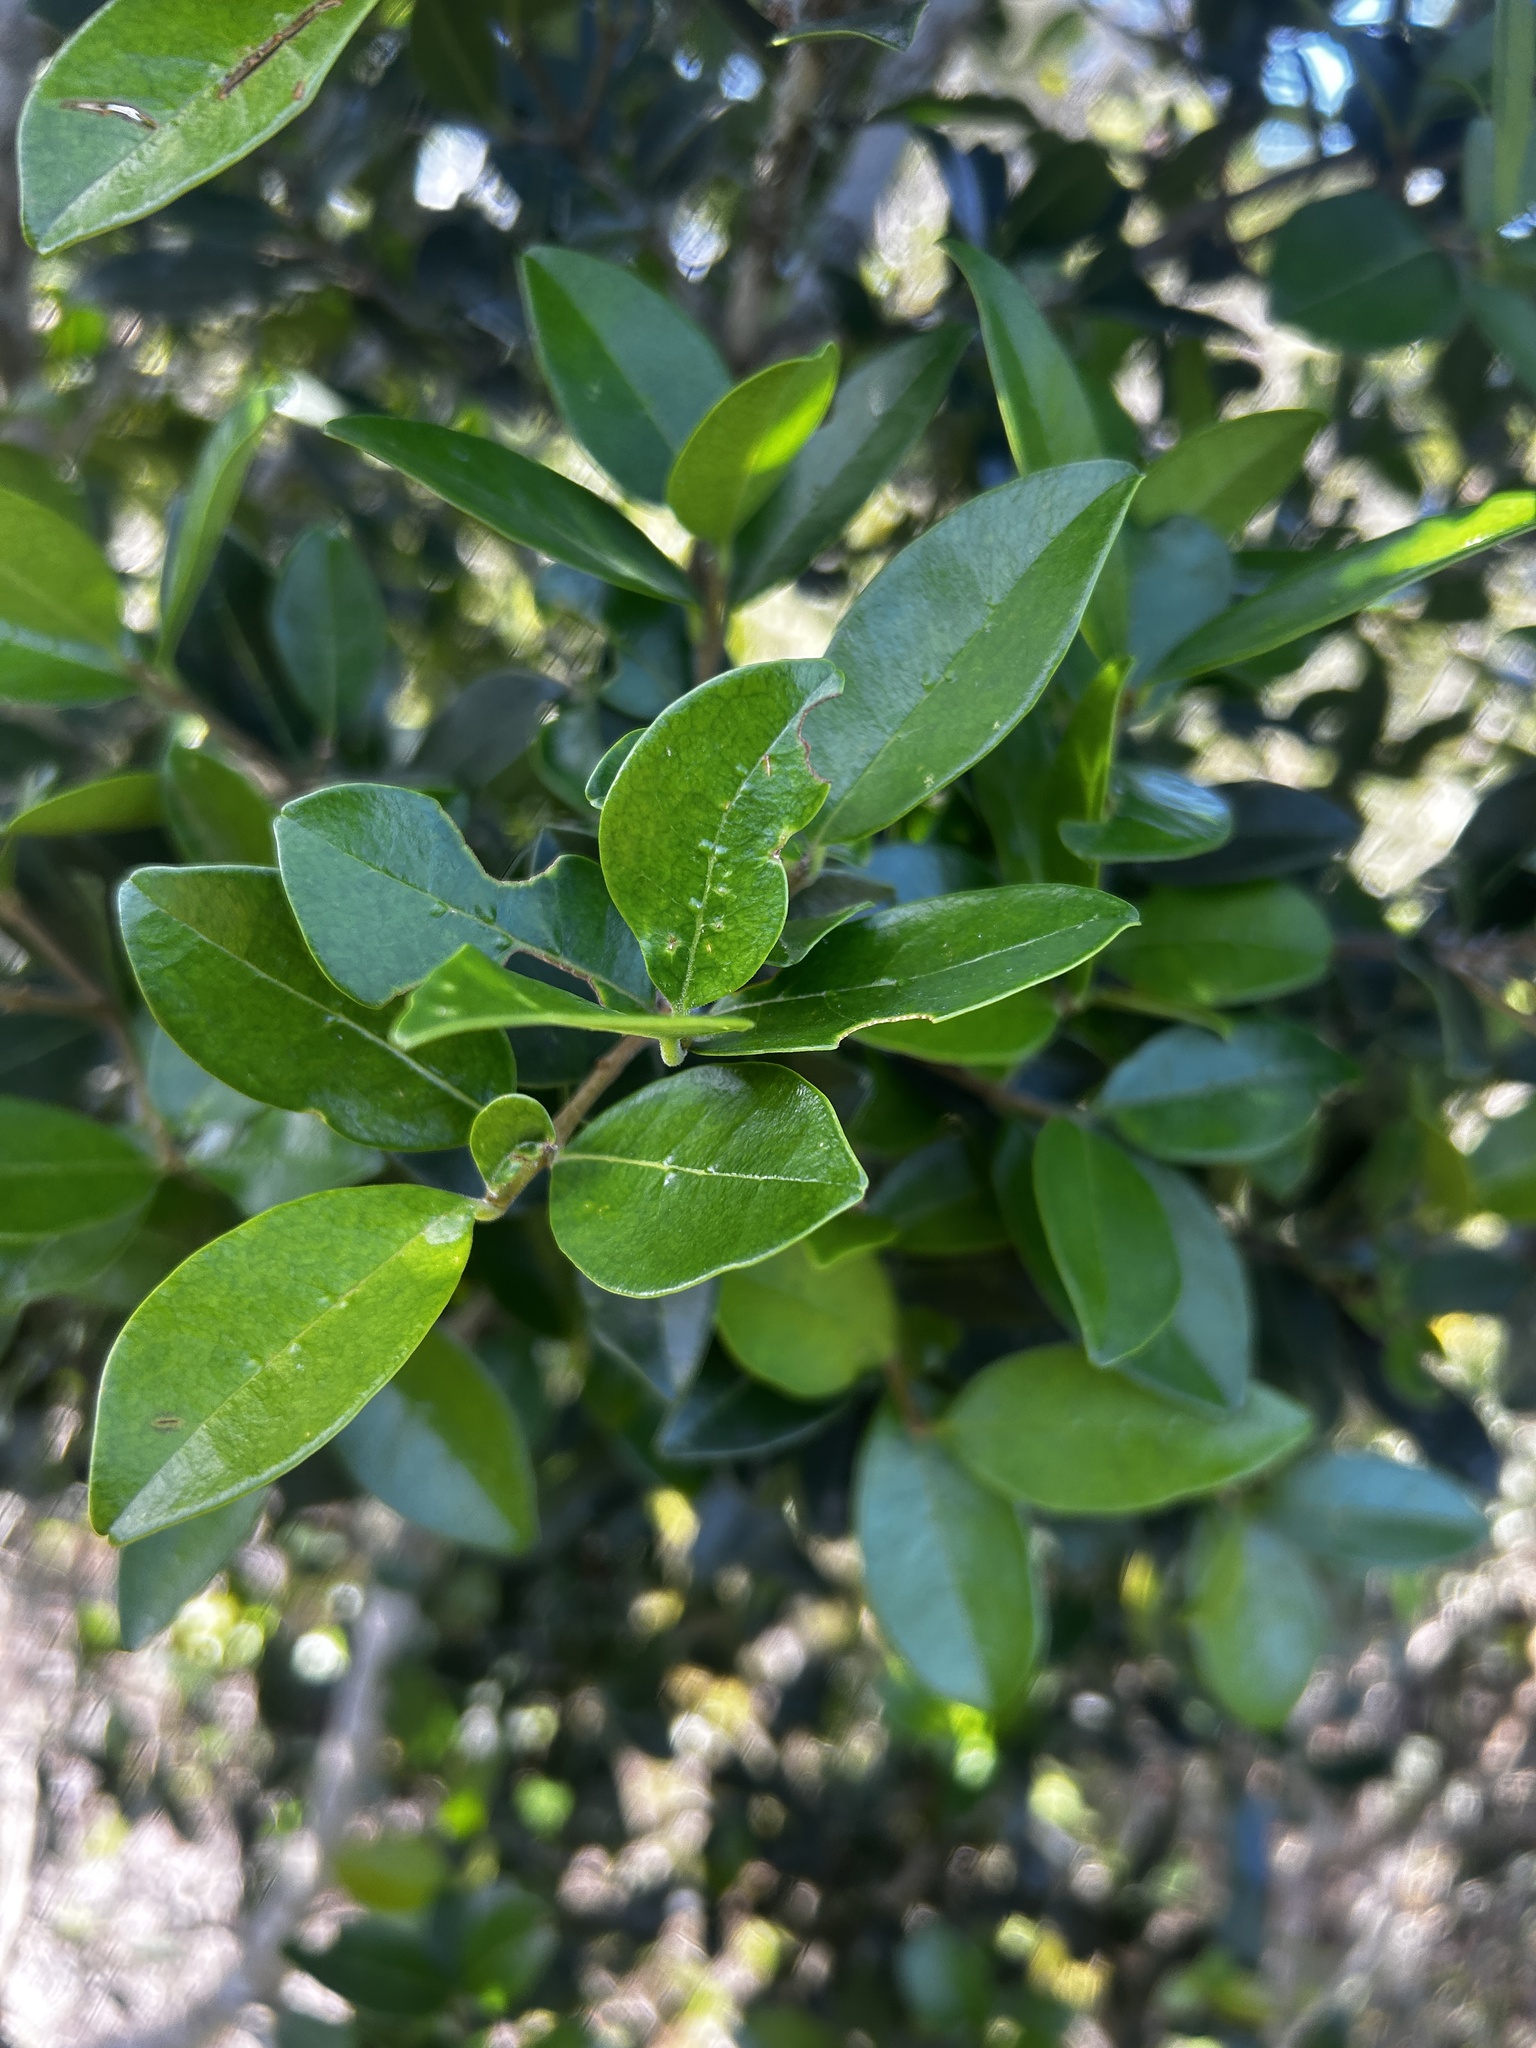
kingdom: Plantae
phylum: Tracheophyta
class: Magnoliopsida
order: Lamiales
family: Oleaceae
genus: Noronhia
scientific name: Noronhia foveolata
